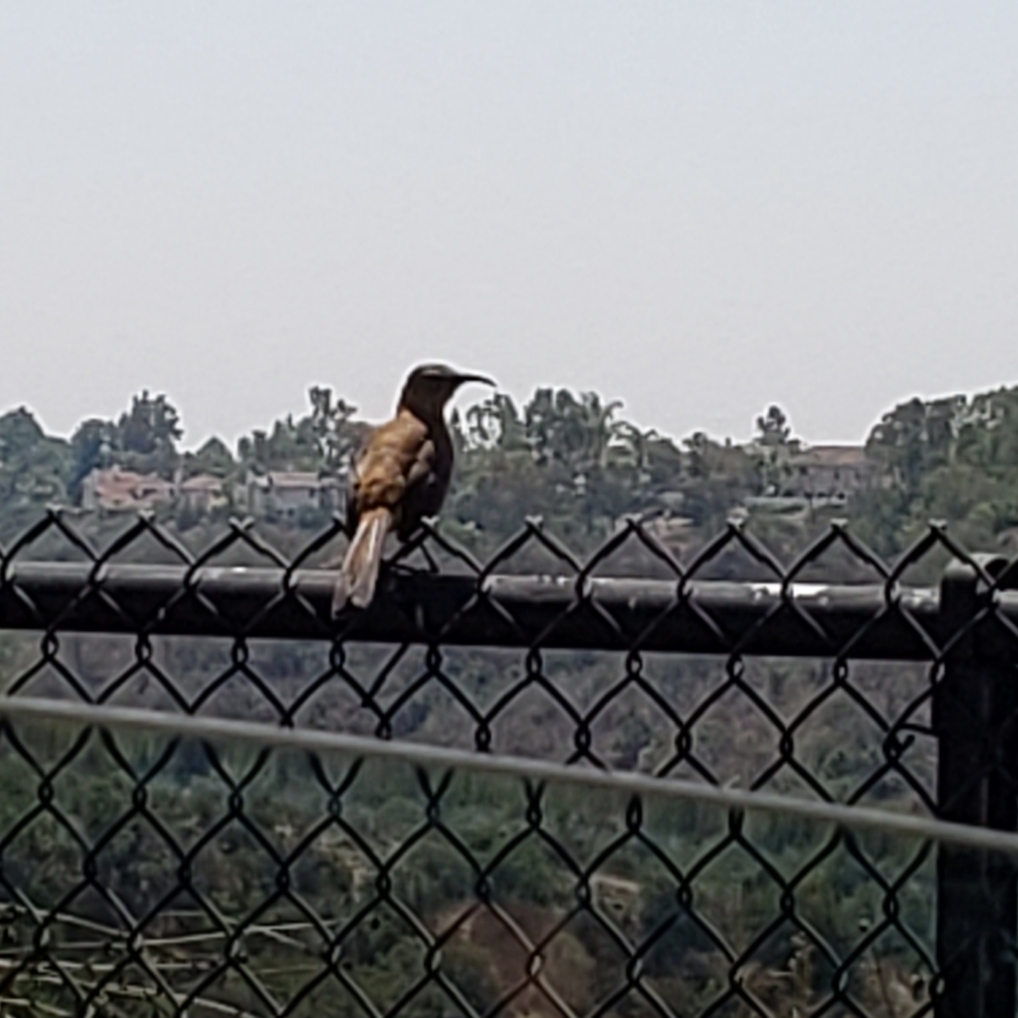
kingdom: Animalia
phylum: Chordata
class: Aves
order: Passeriformes
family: Mimidae
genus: Toxostoma
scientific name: Toxostoma redivivum
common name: California thrasher
